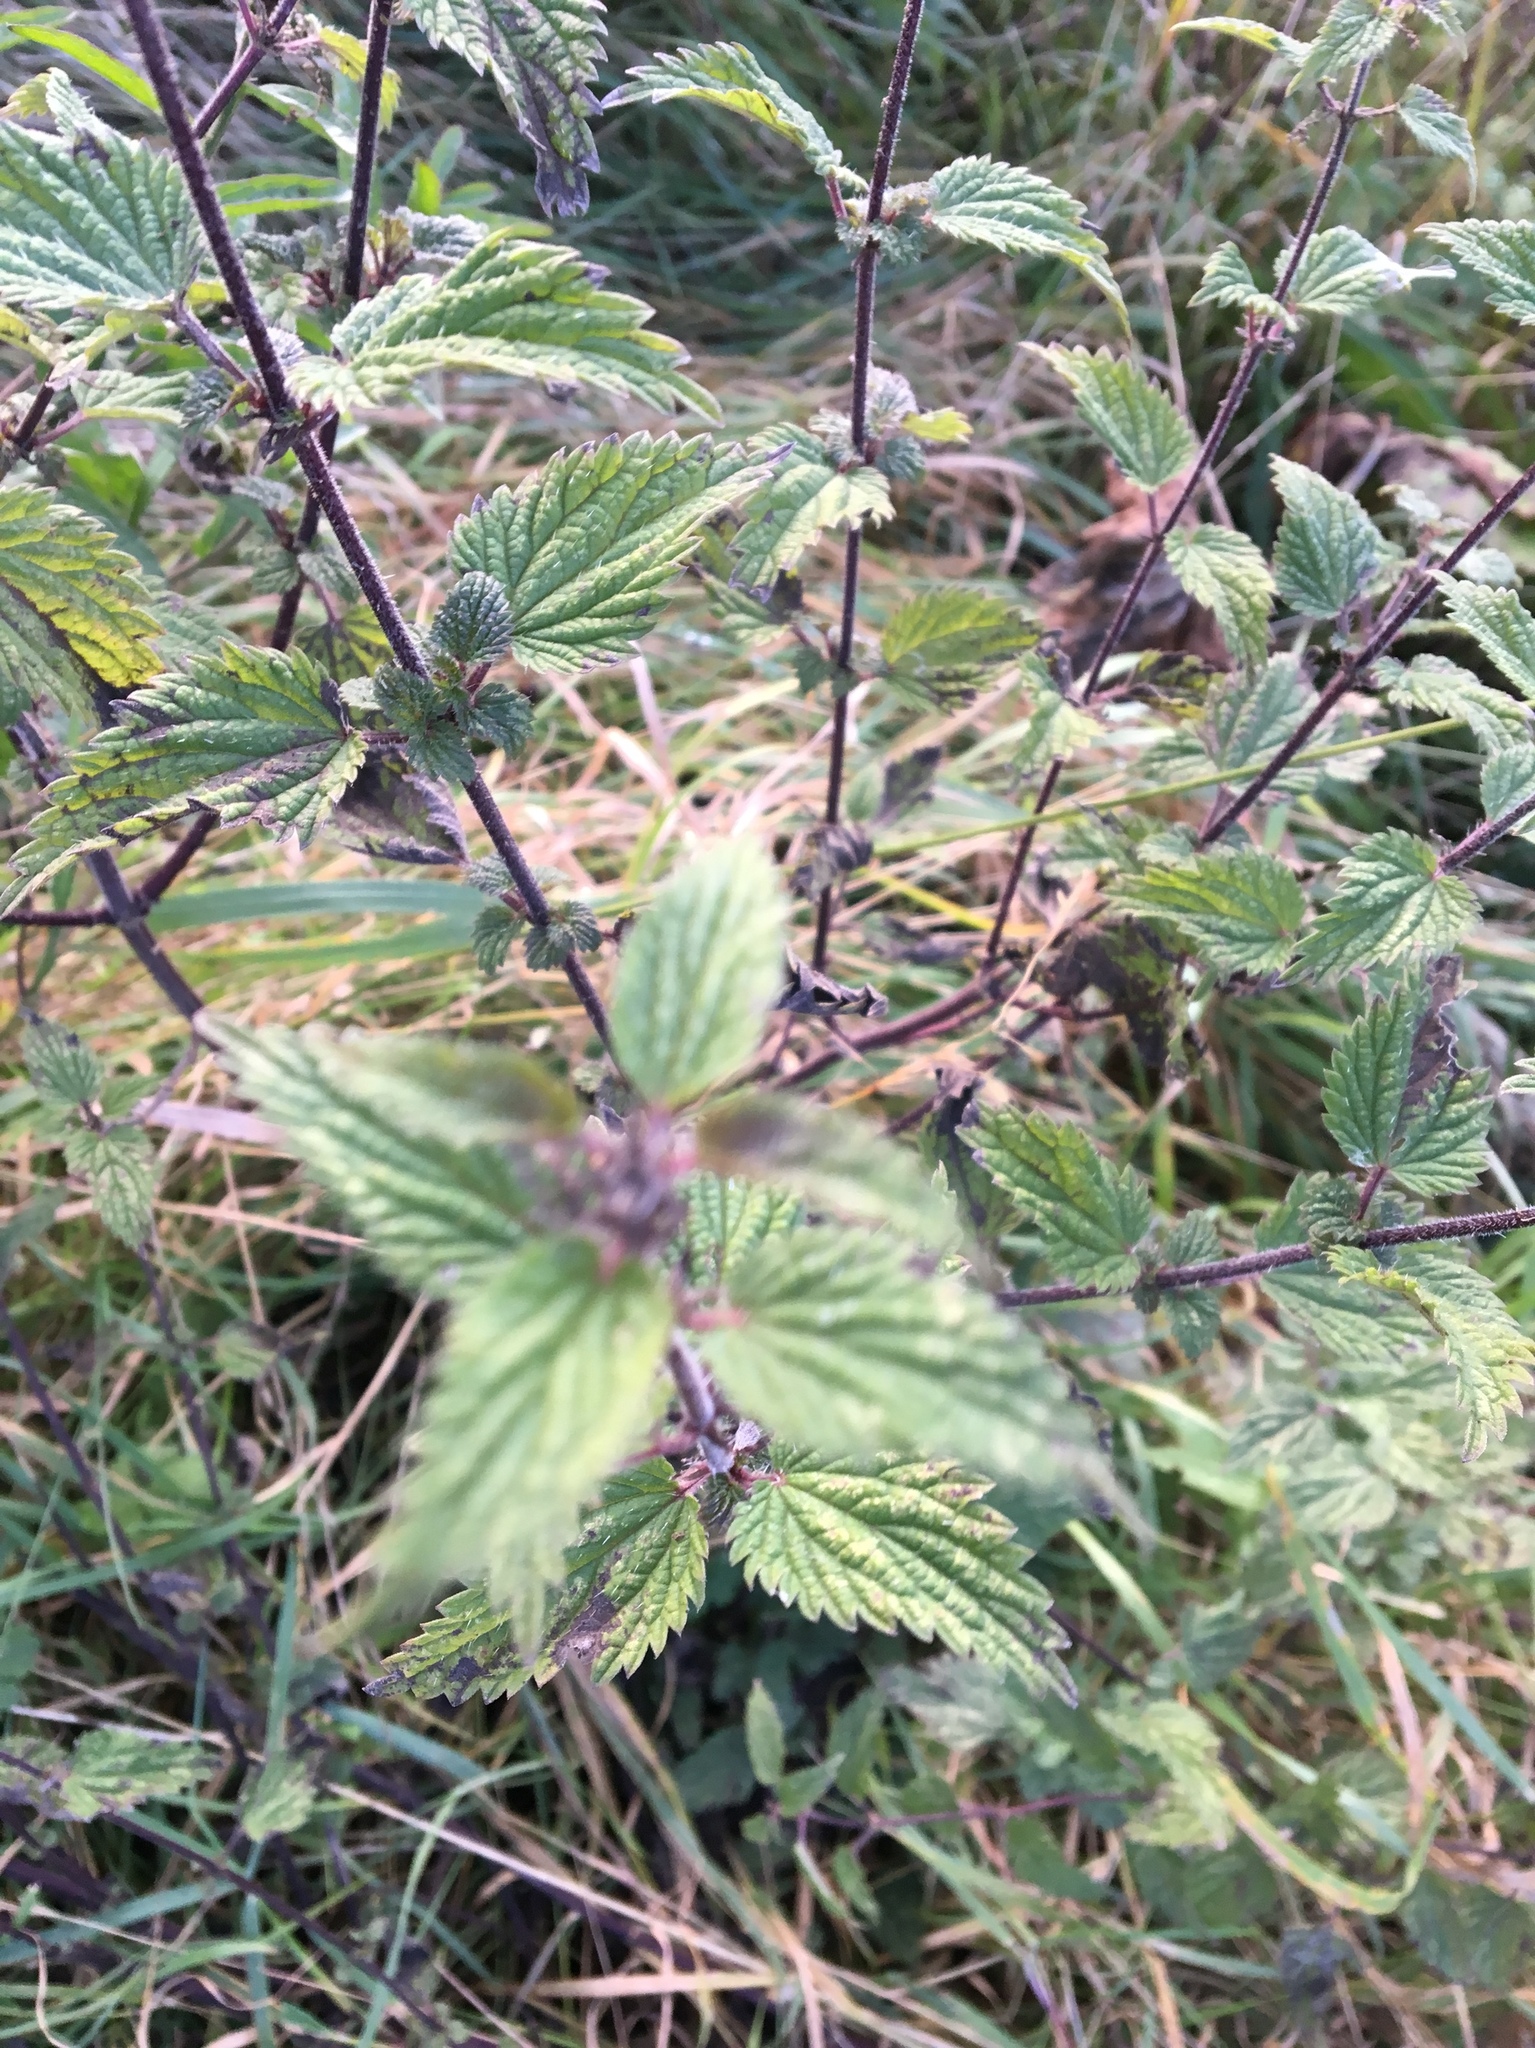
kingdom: Plantae
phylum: Tracheophyta
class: Magnoliopsida
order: Rosales
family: Urticaceae
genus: Urtica
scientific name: Urtica dioica
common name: Common nettle
